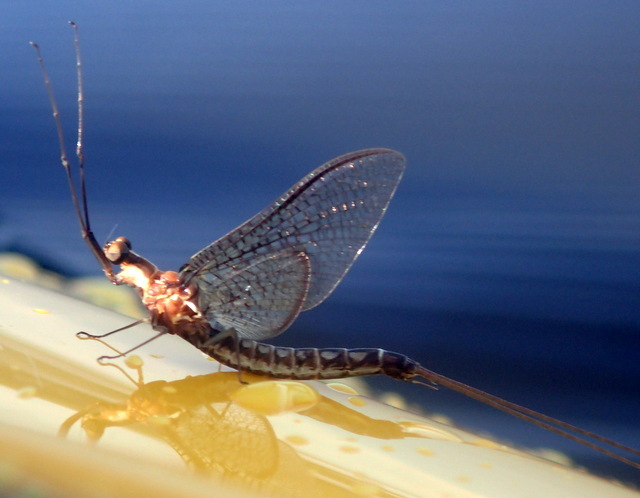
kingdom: Animalia
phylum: Arthropoda
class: Insecta
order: Ephemeroptera
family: Ephemeridae
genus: Hexagenia
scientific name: Hexagenia bilineata
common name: Emergent mayfly
